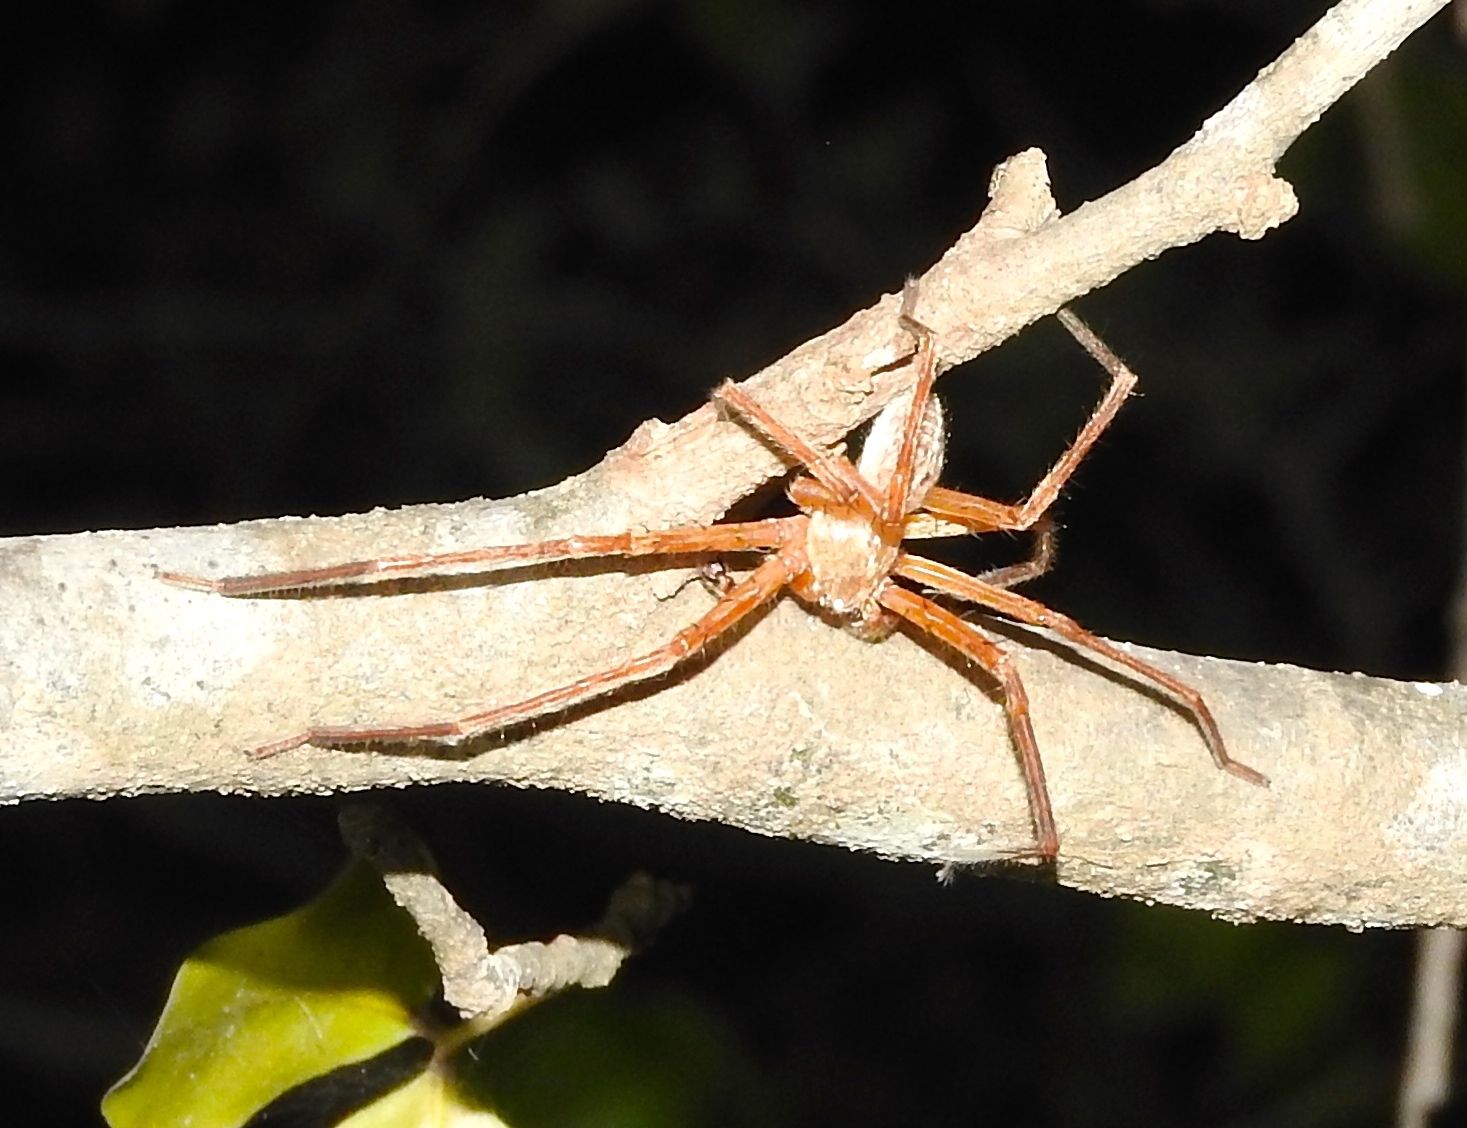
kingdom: Animalia
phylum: Arthropoda
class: Arachnida
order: Araneae
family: Sparassidae
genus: Curicaberis
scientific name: Curicaberis culiacan
